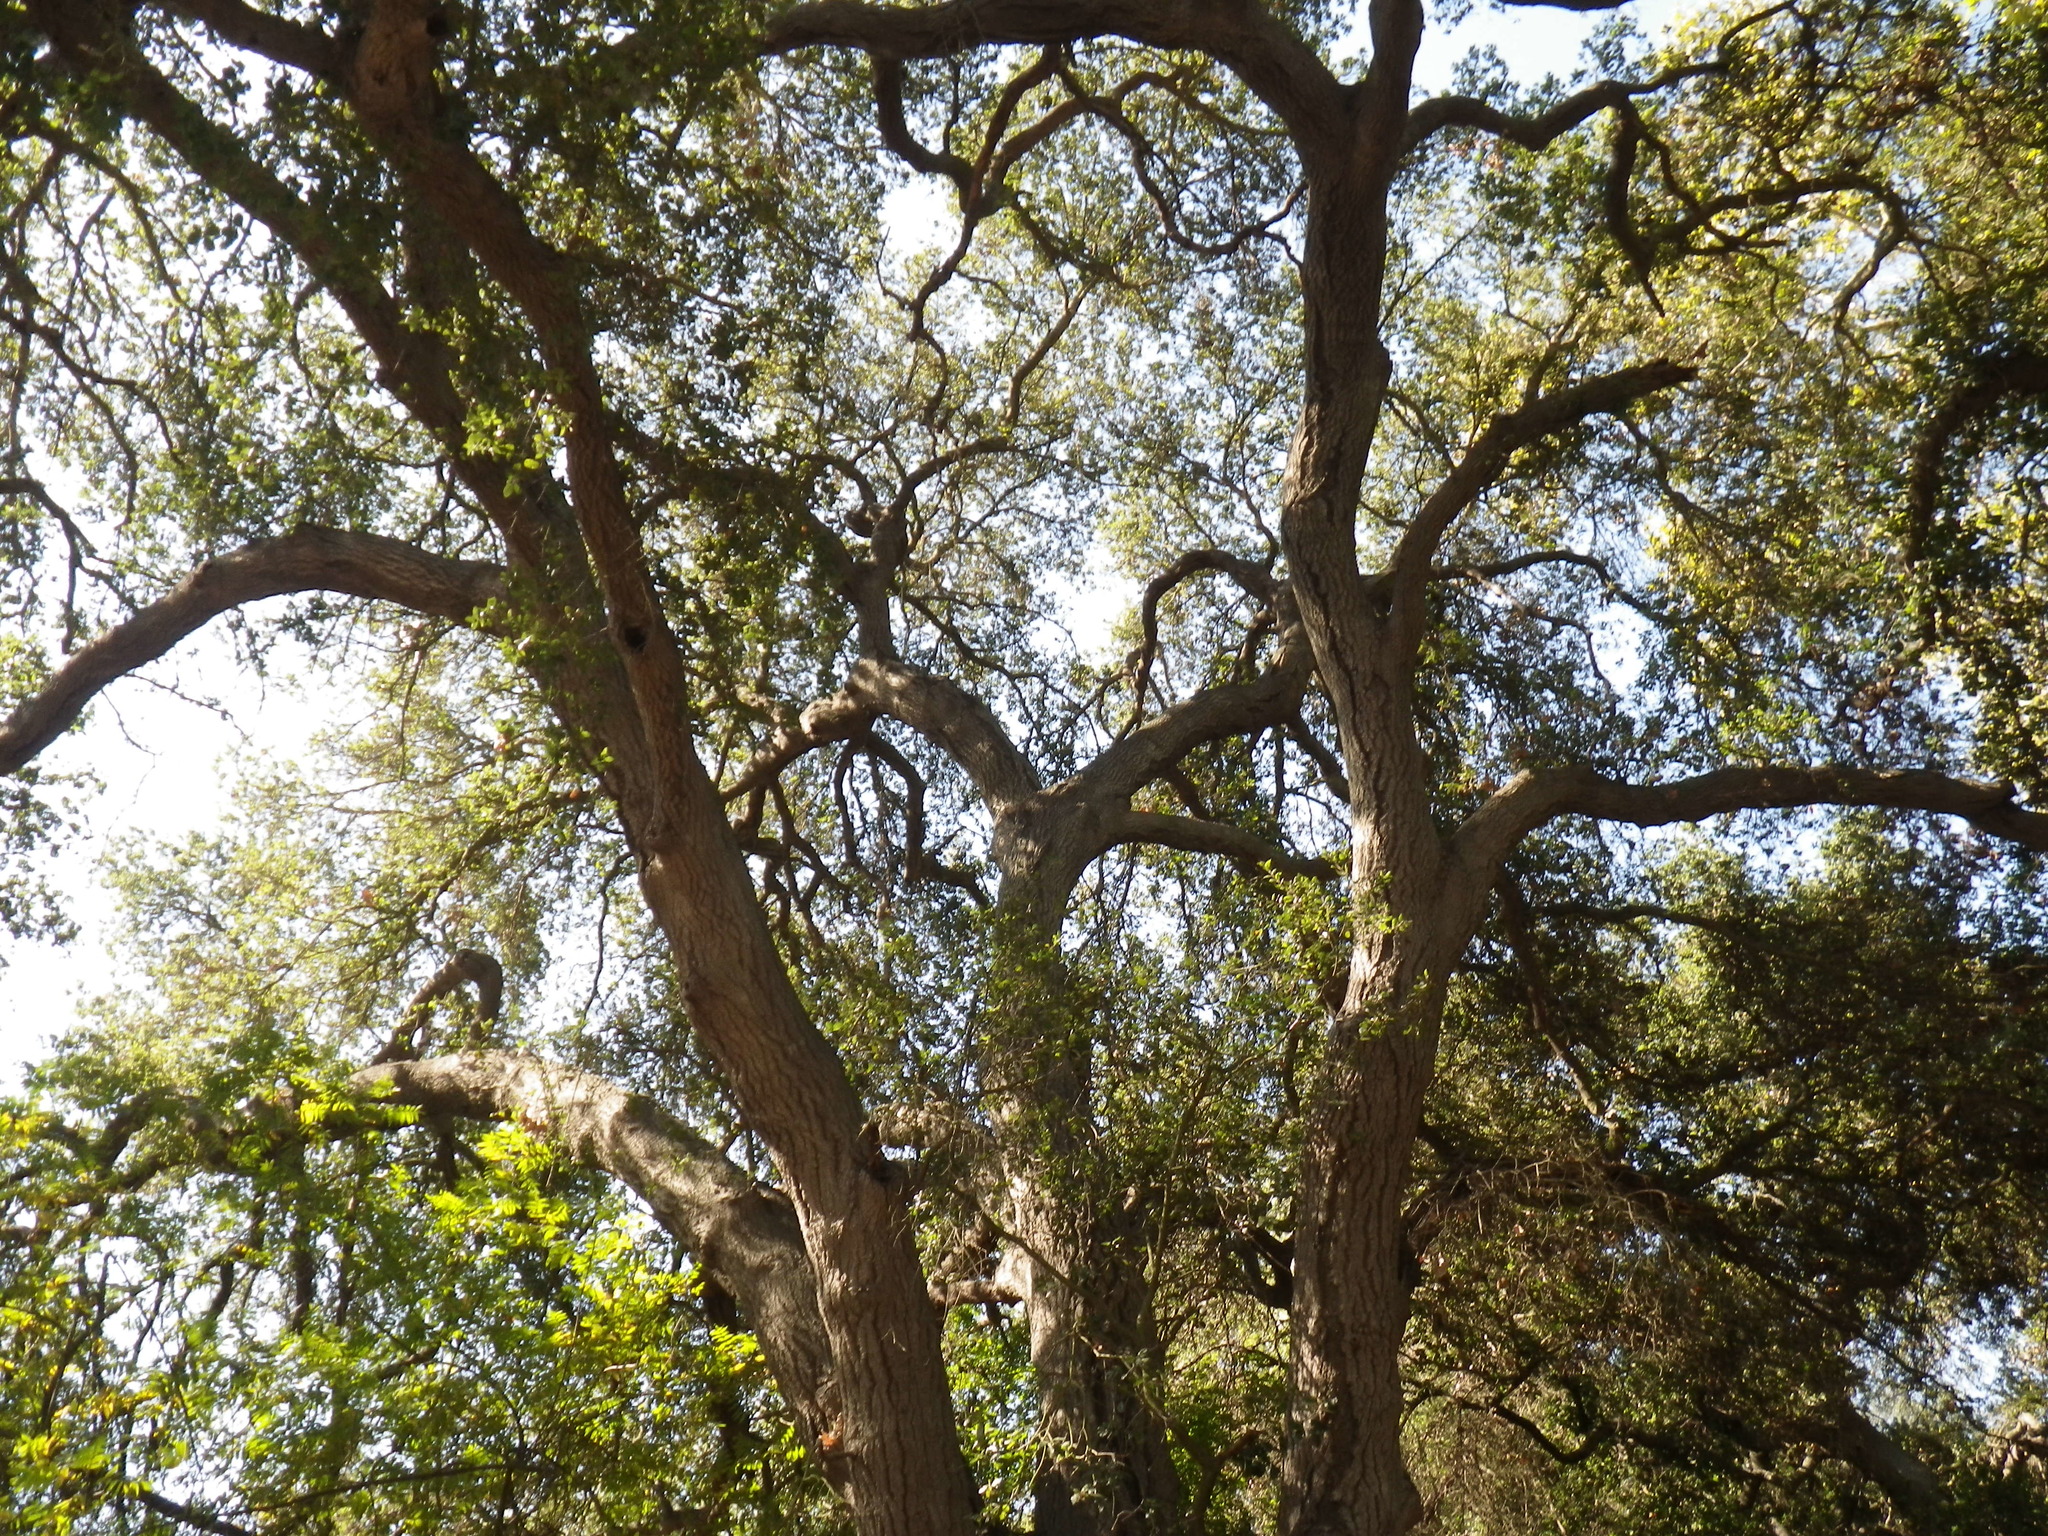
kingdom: Plantae
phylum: Tracheophyta
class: Magnoliopsida
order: Fagales
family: Fagaceae
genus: Quercus
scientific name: Quercus agrifolia
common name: California live oak
